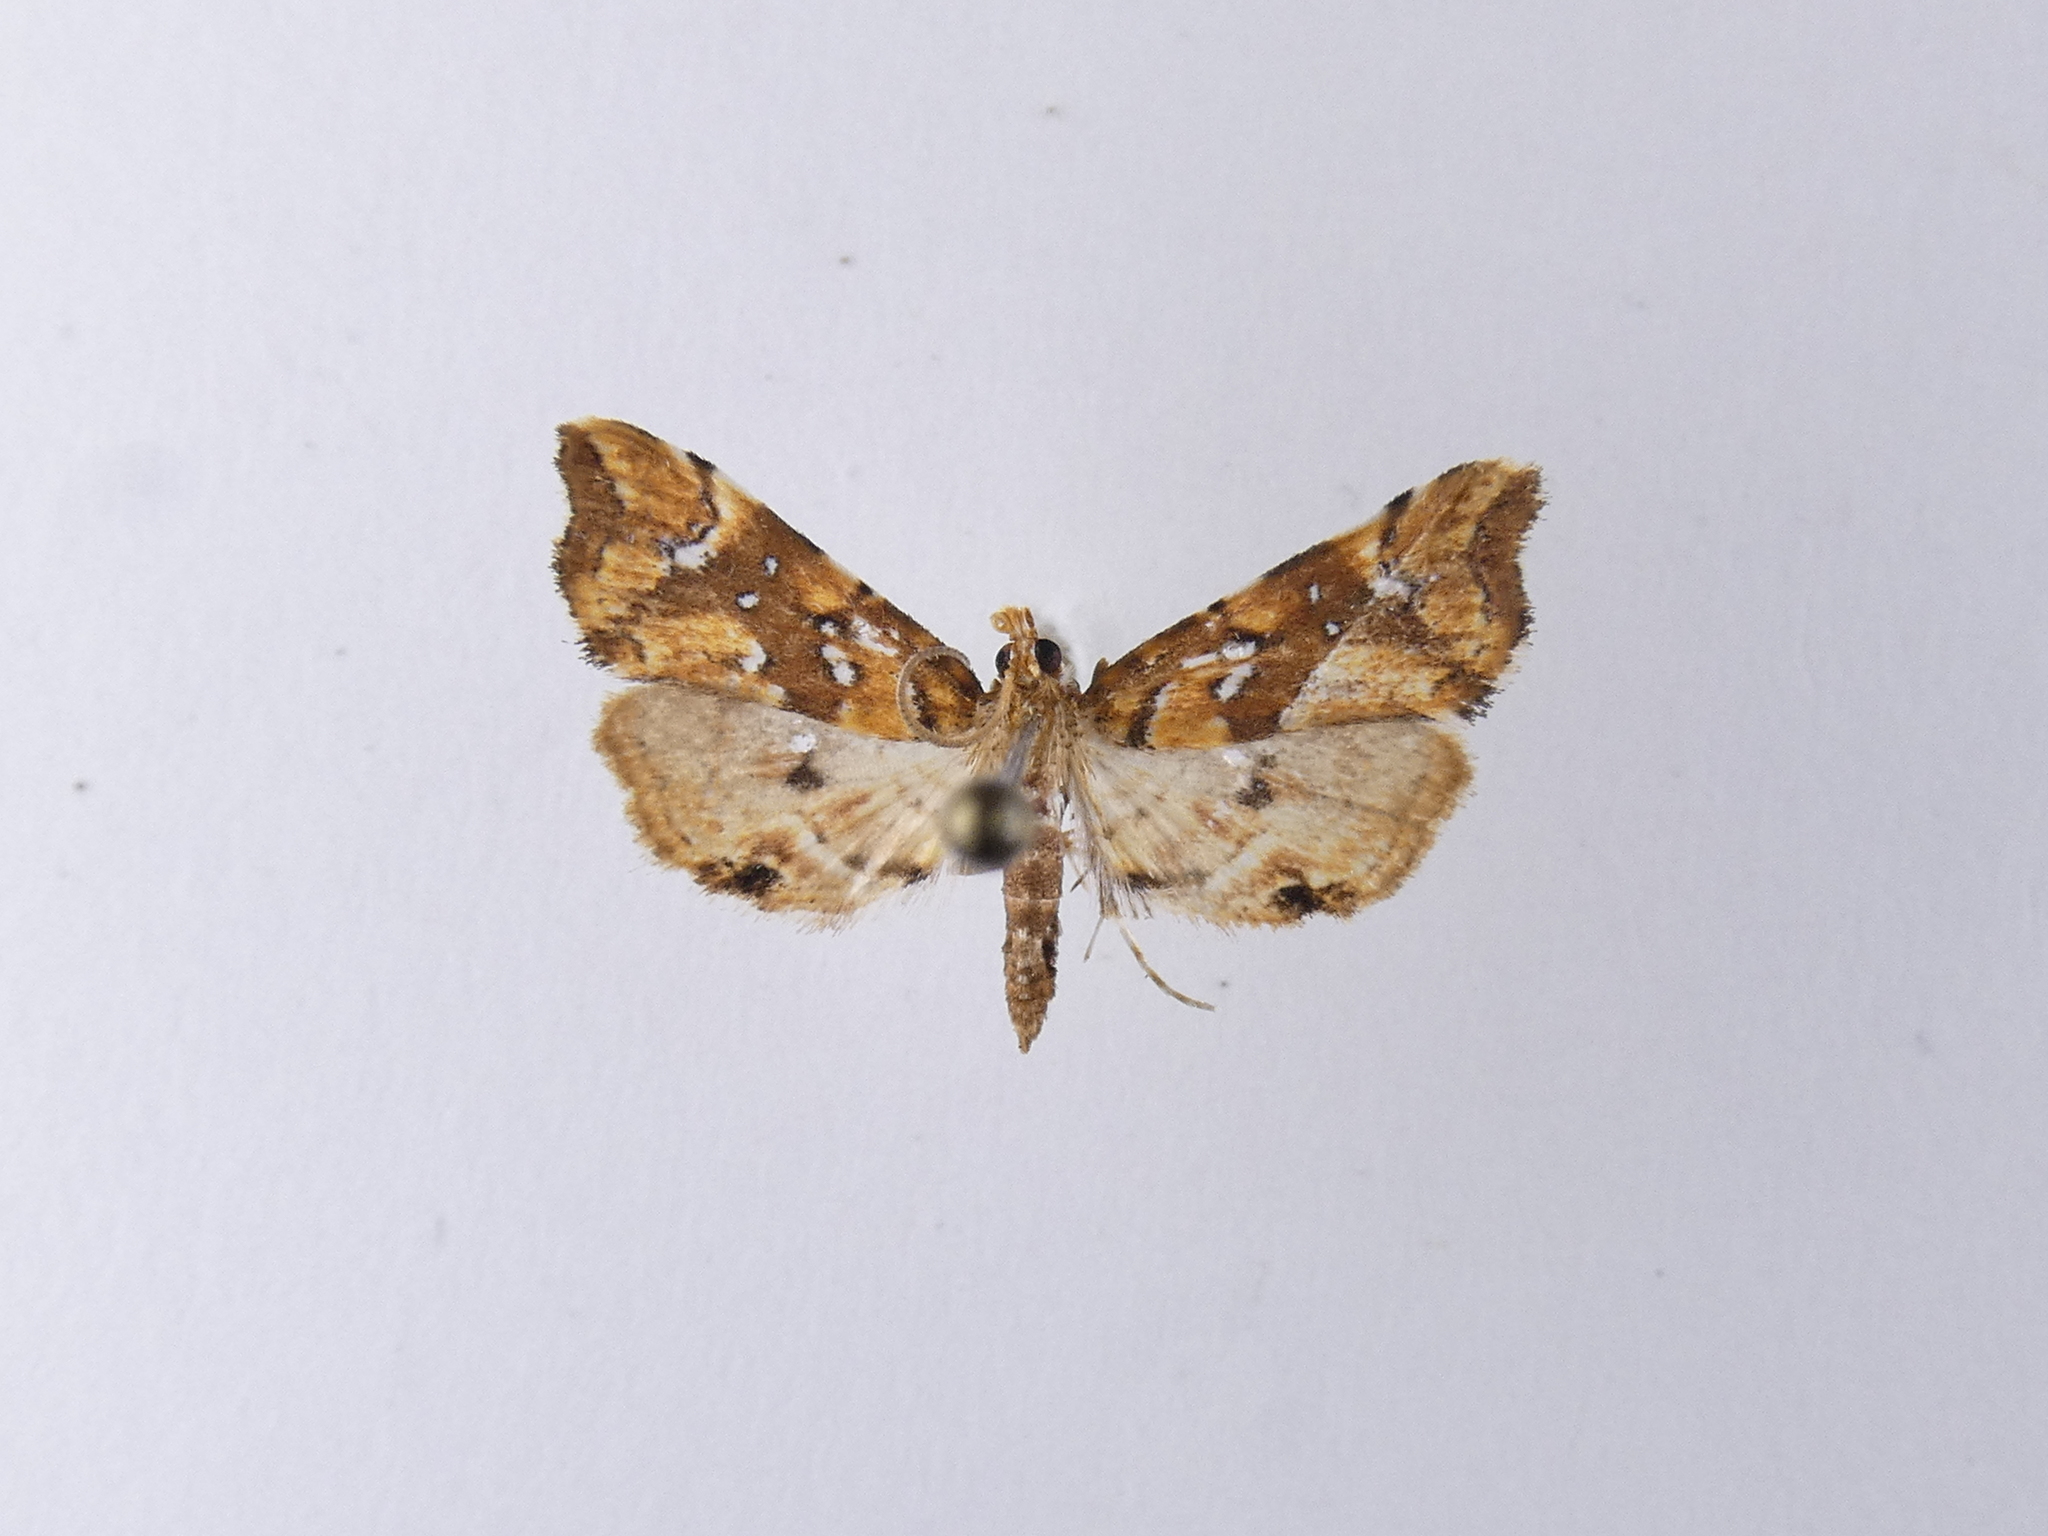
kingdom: Animalia
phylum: Arthropoda
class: Insecta
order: Lepidoptera
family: Pyralidae
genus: Musotima
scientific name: Musotima nitidalis
